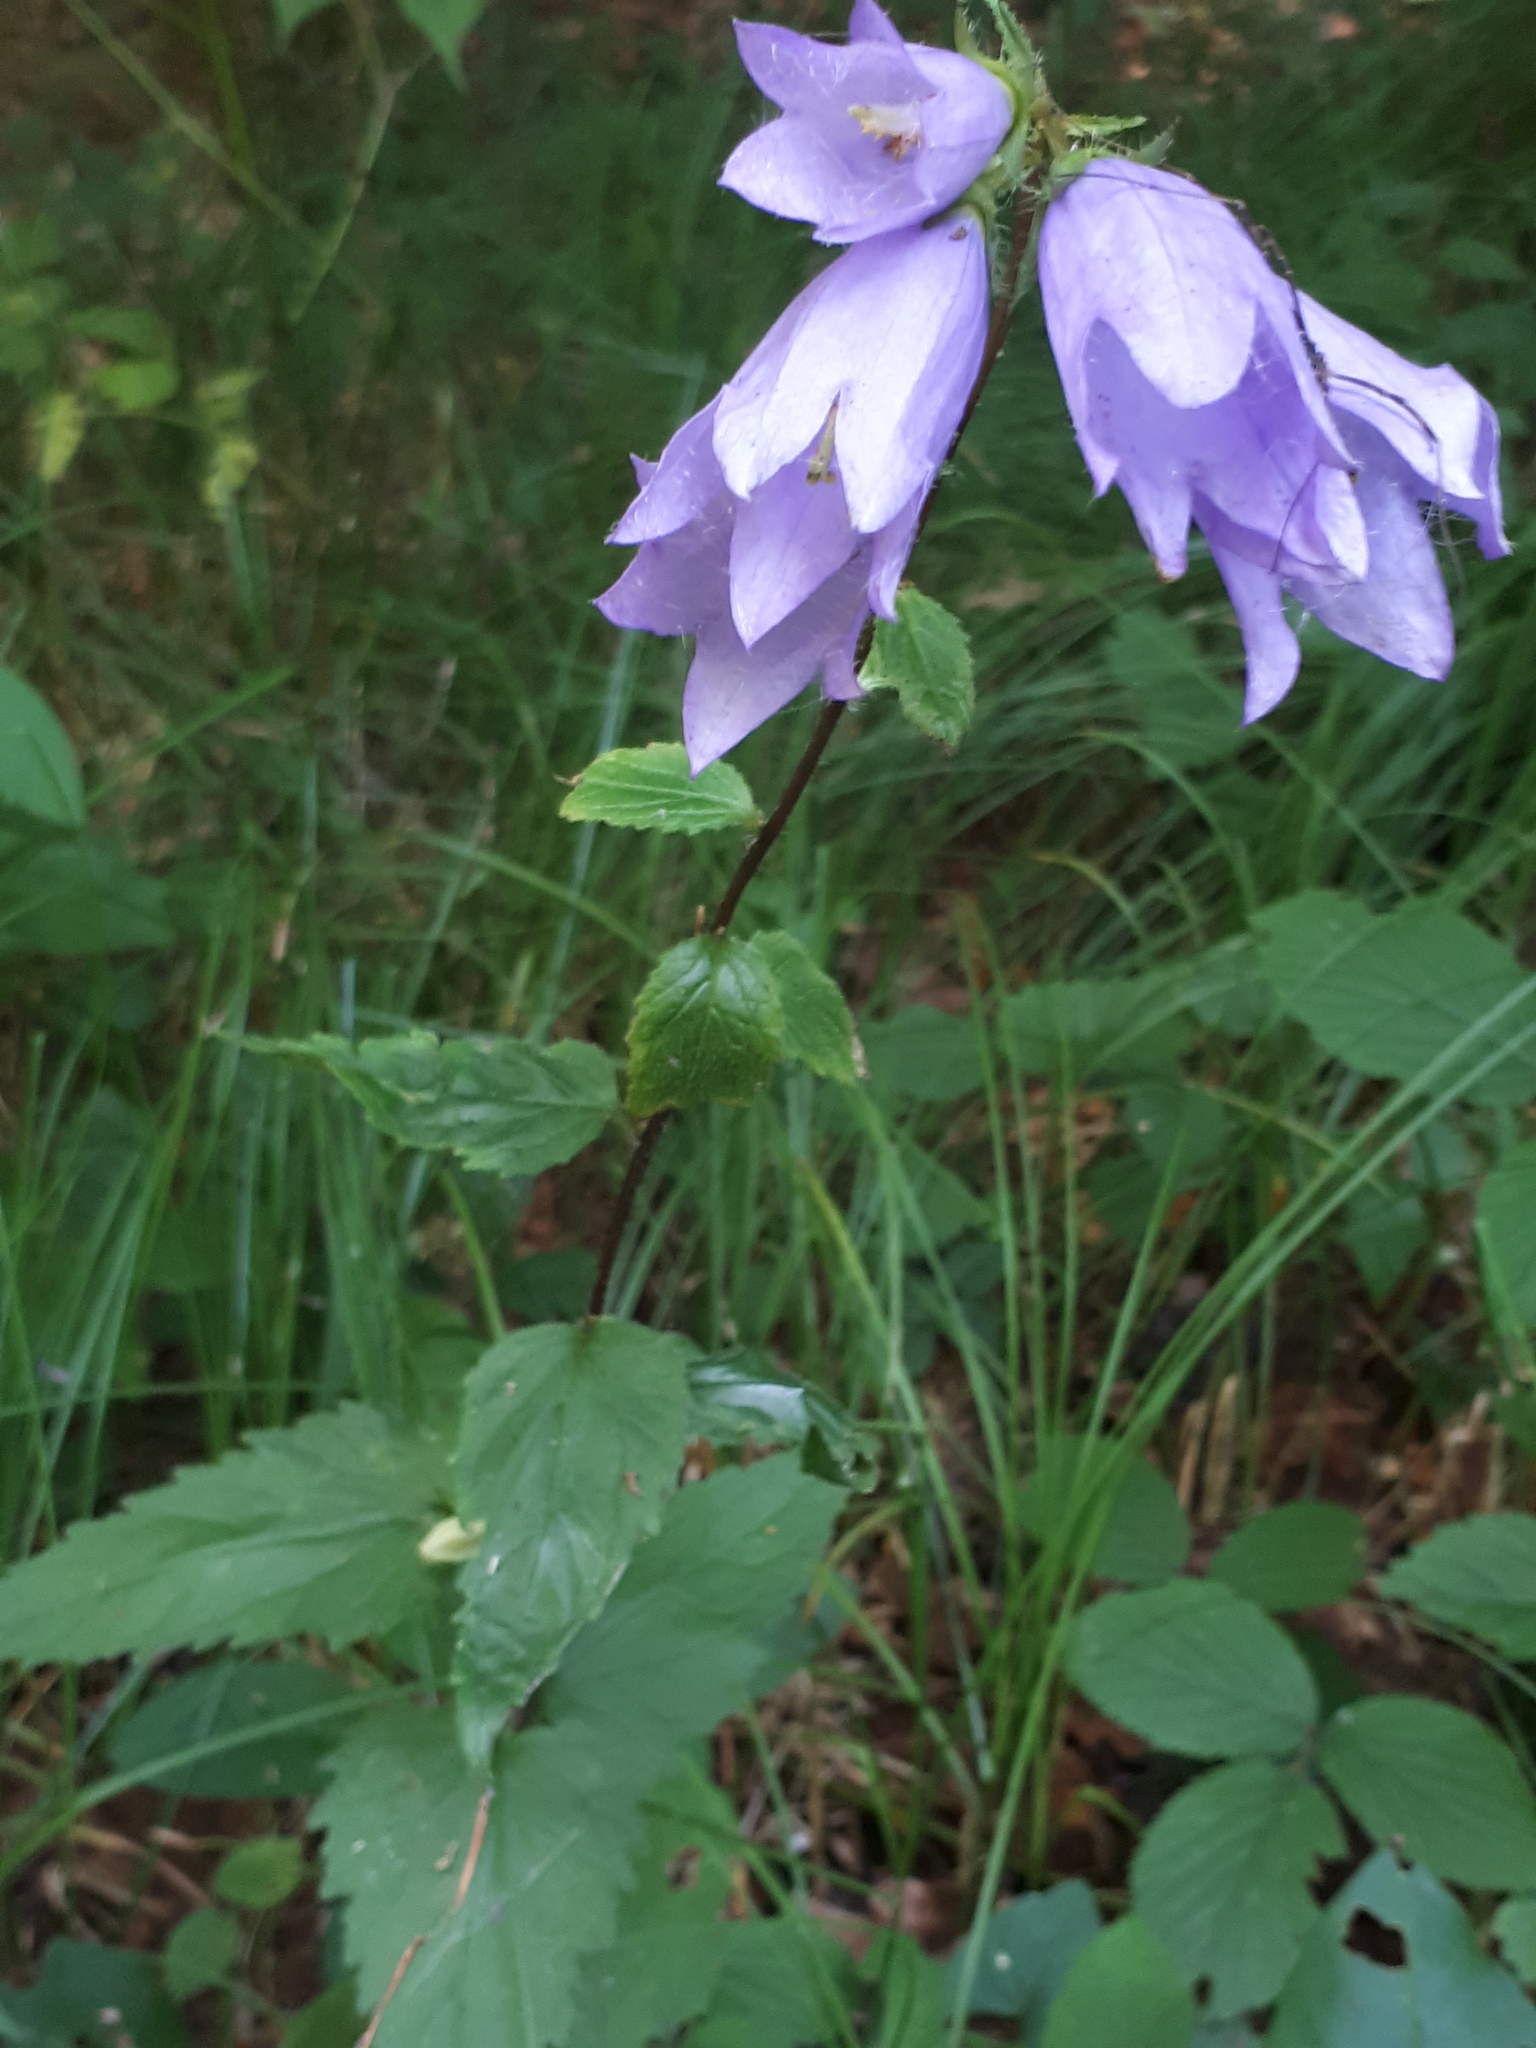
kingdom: Plantae
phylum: Tracheophyta
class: Magnoliopsida
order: Asterales
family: Campanulaceae
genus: Campanula
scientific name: Campanula trachelium
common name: Nettle-leaved bellflower
